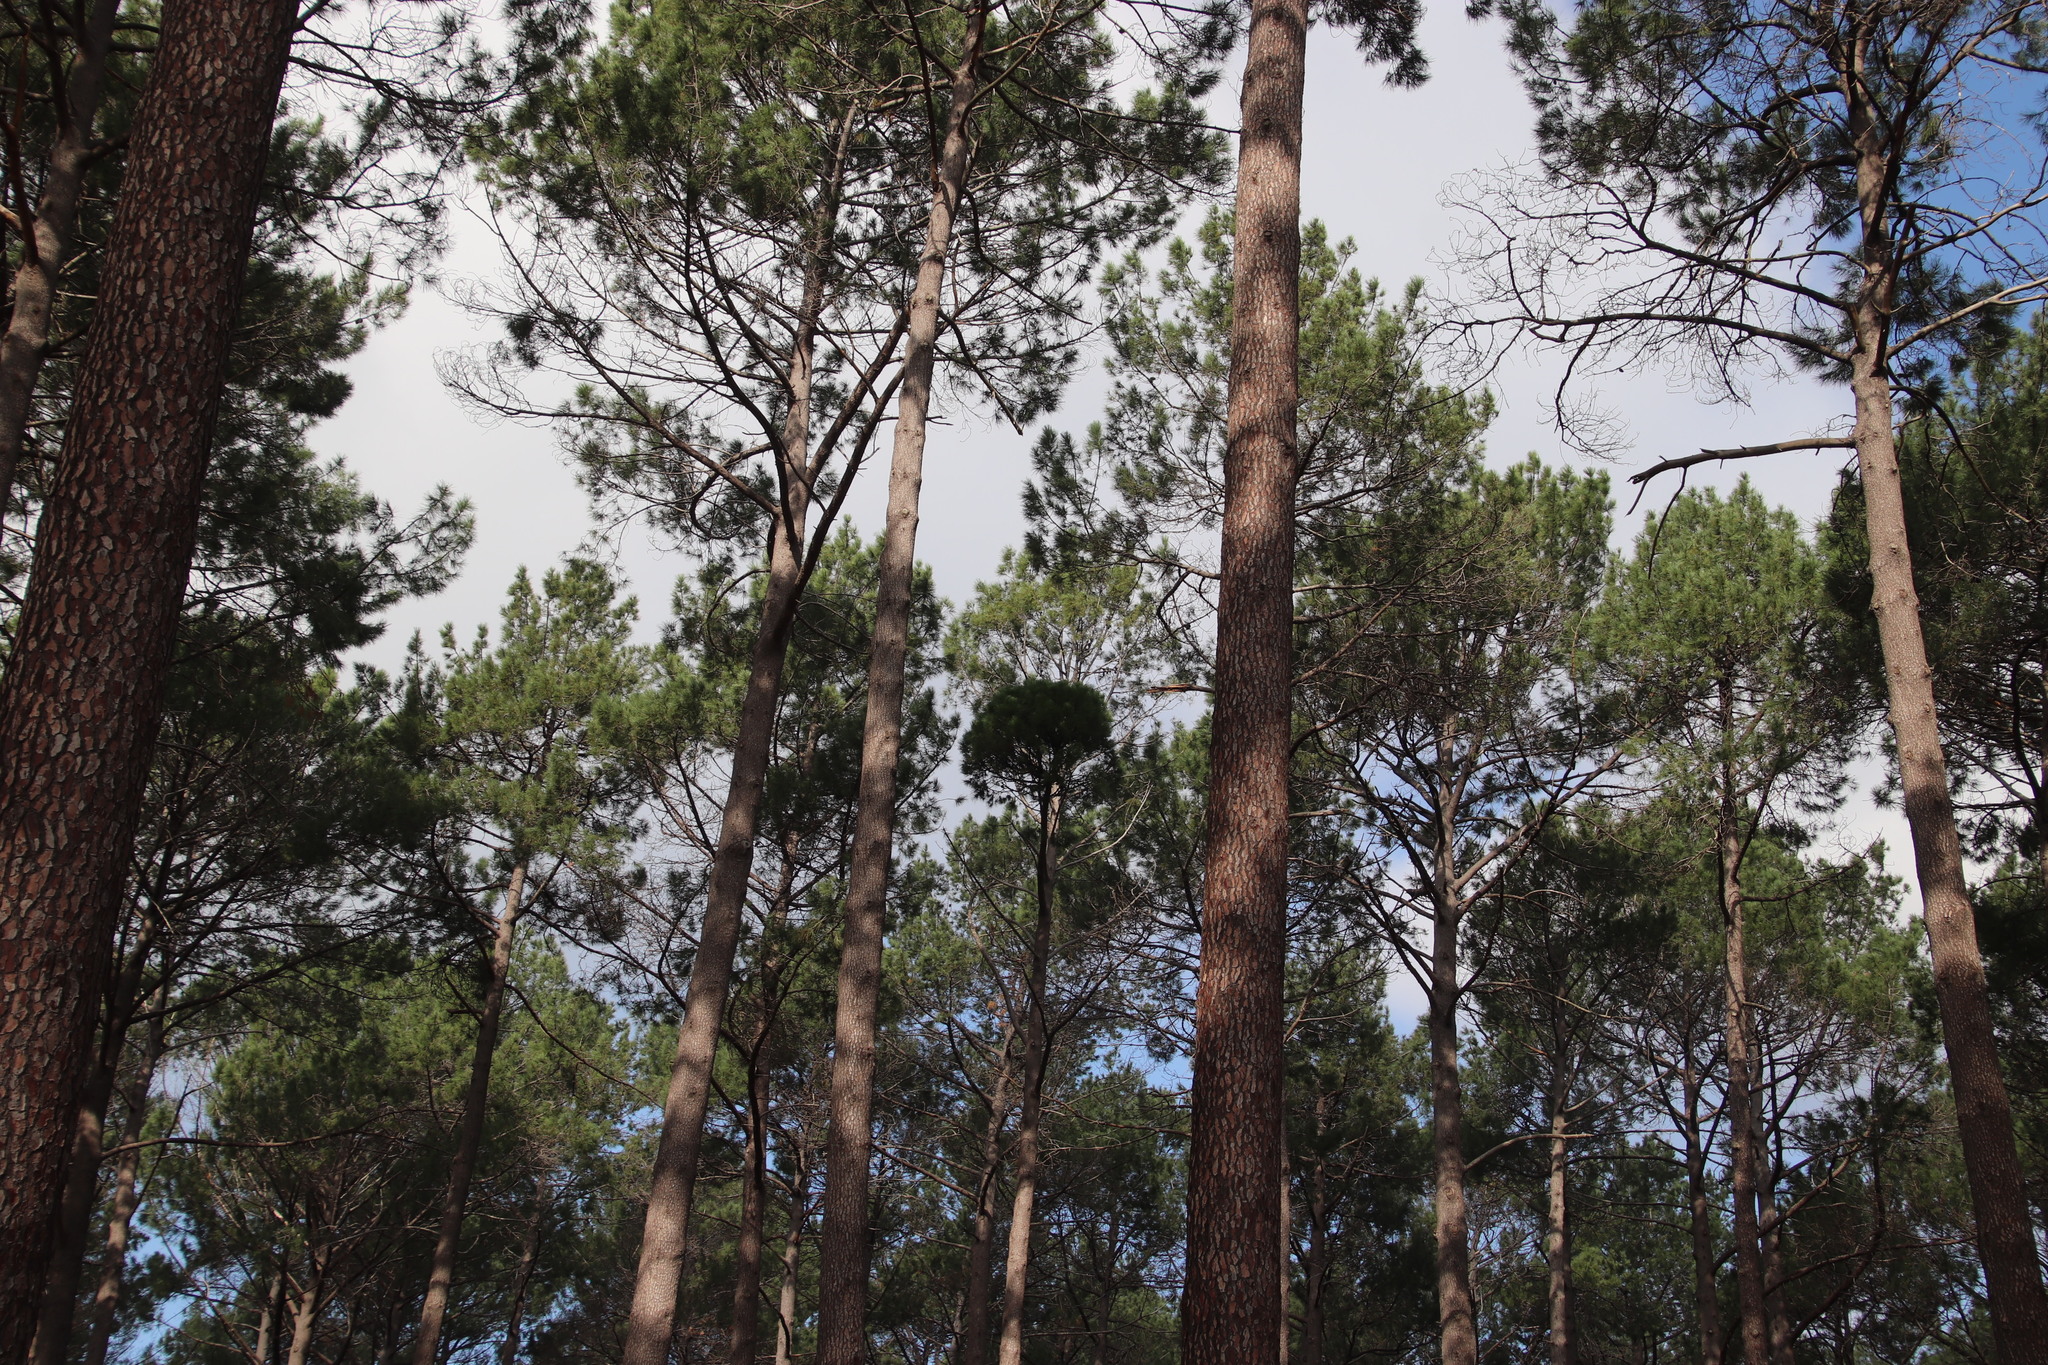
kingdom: Bacteria
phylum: Firmicutes
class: Bacilli
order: Acholeplasmatales
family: Acholeplasmataceae
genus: Phytoplasma
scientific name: Phytoplasma pini
